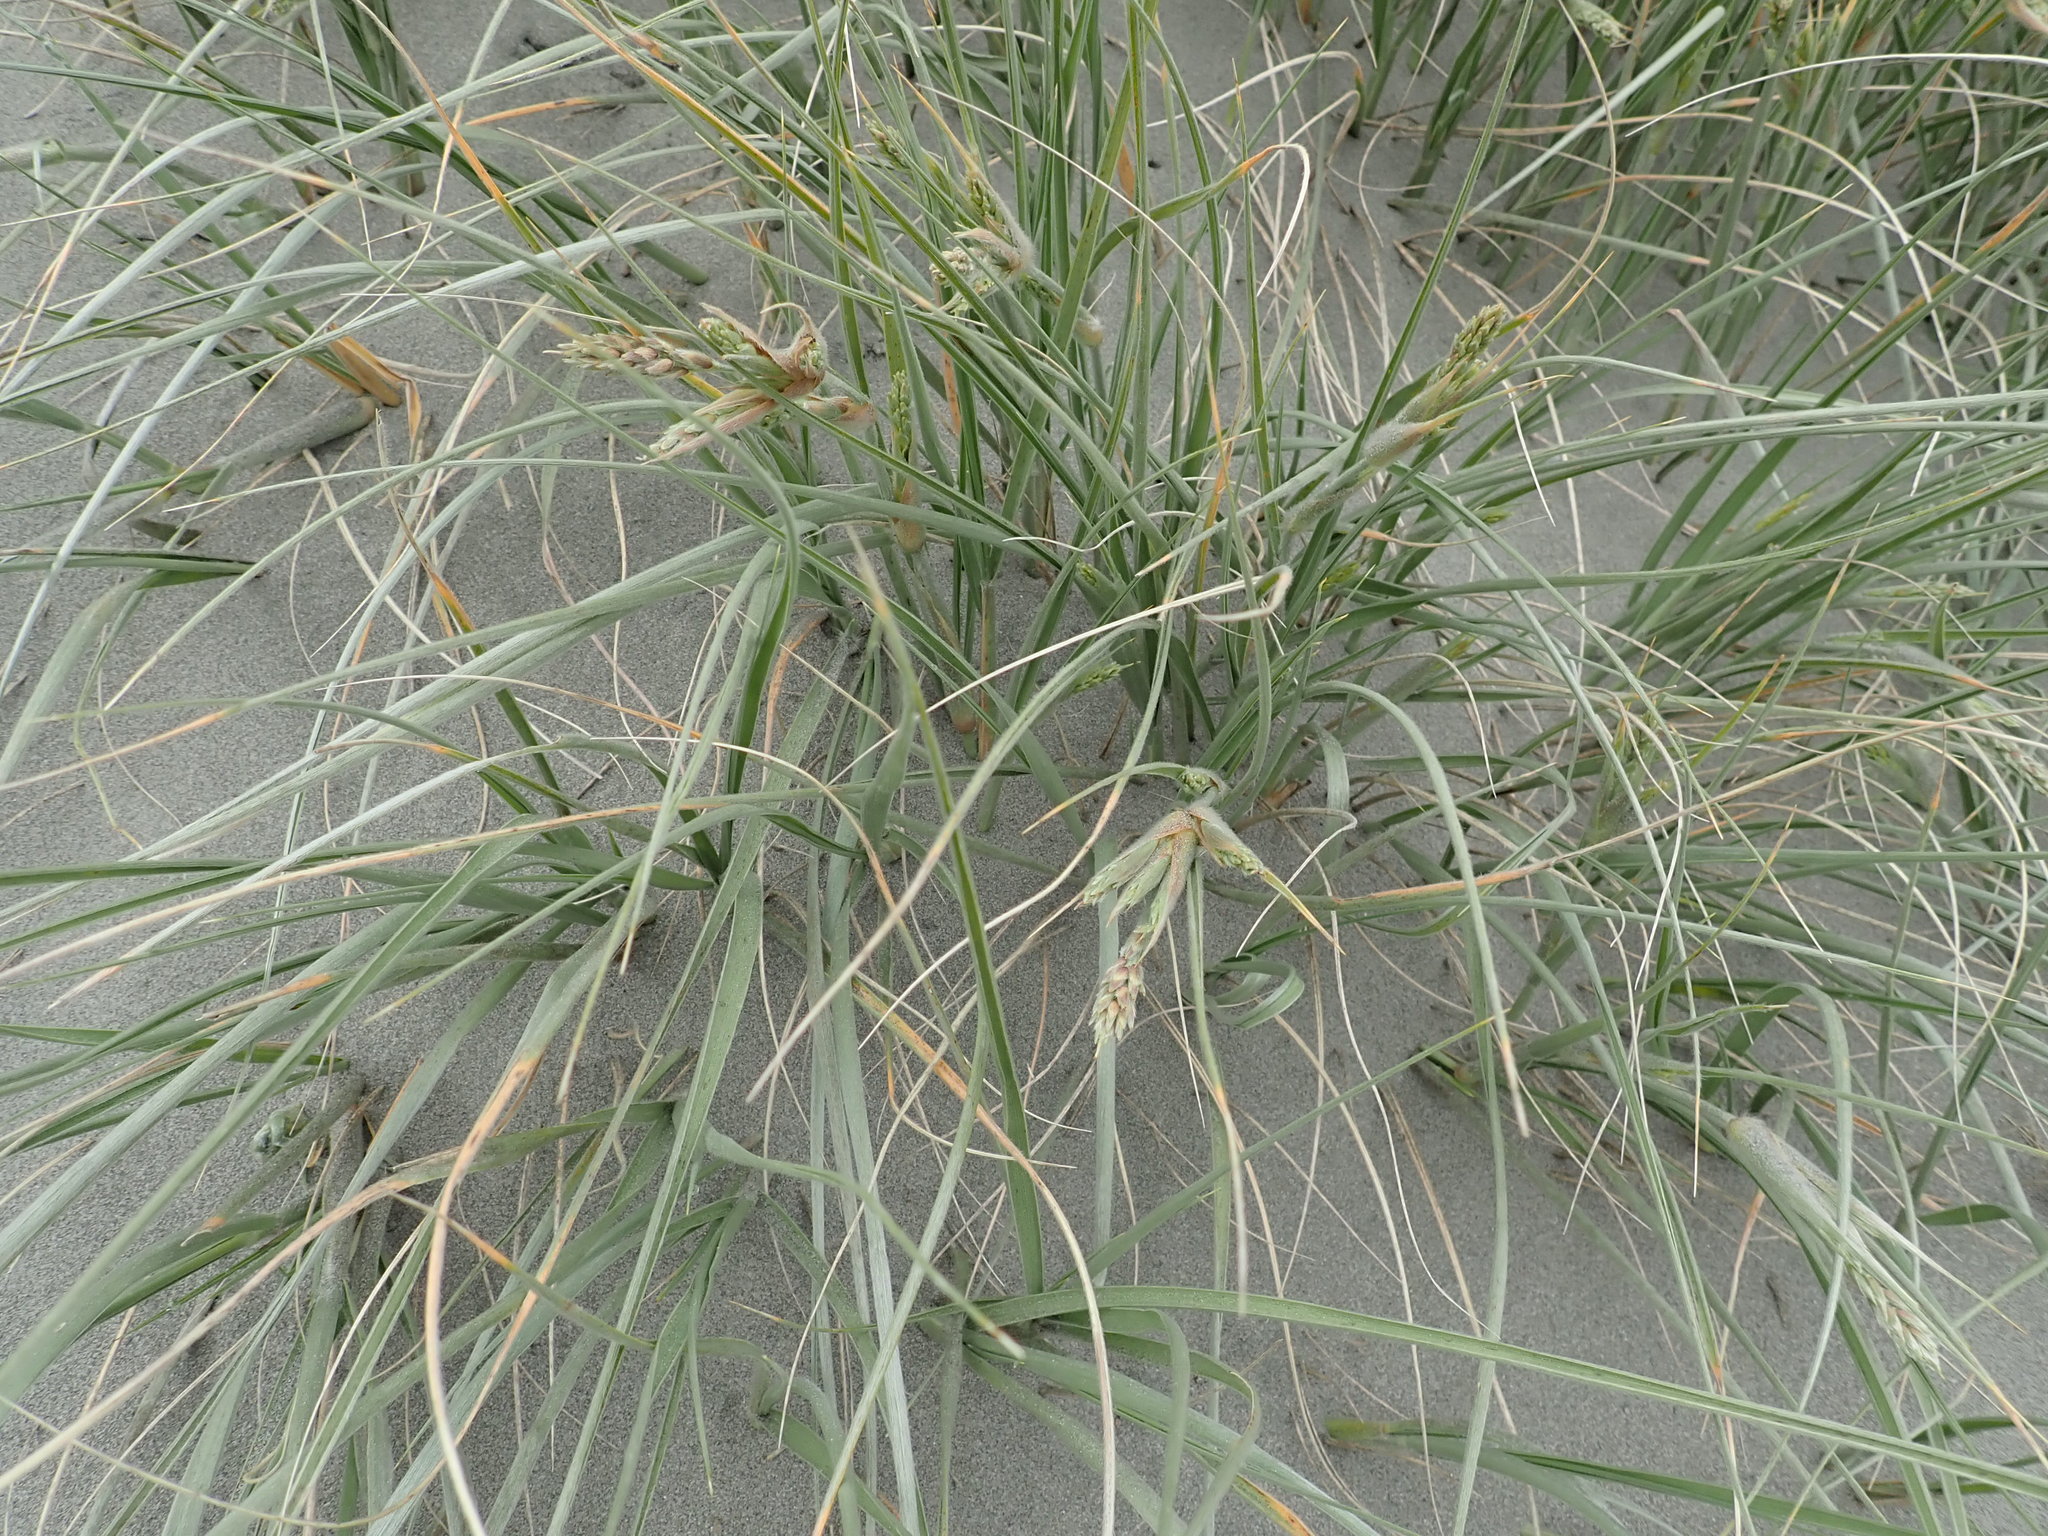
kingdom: Plantae
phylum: Tracheophyta
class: Liliopsida
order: Poales
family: Poaceae
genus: Spinifex
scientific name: Spinifex sericeus
